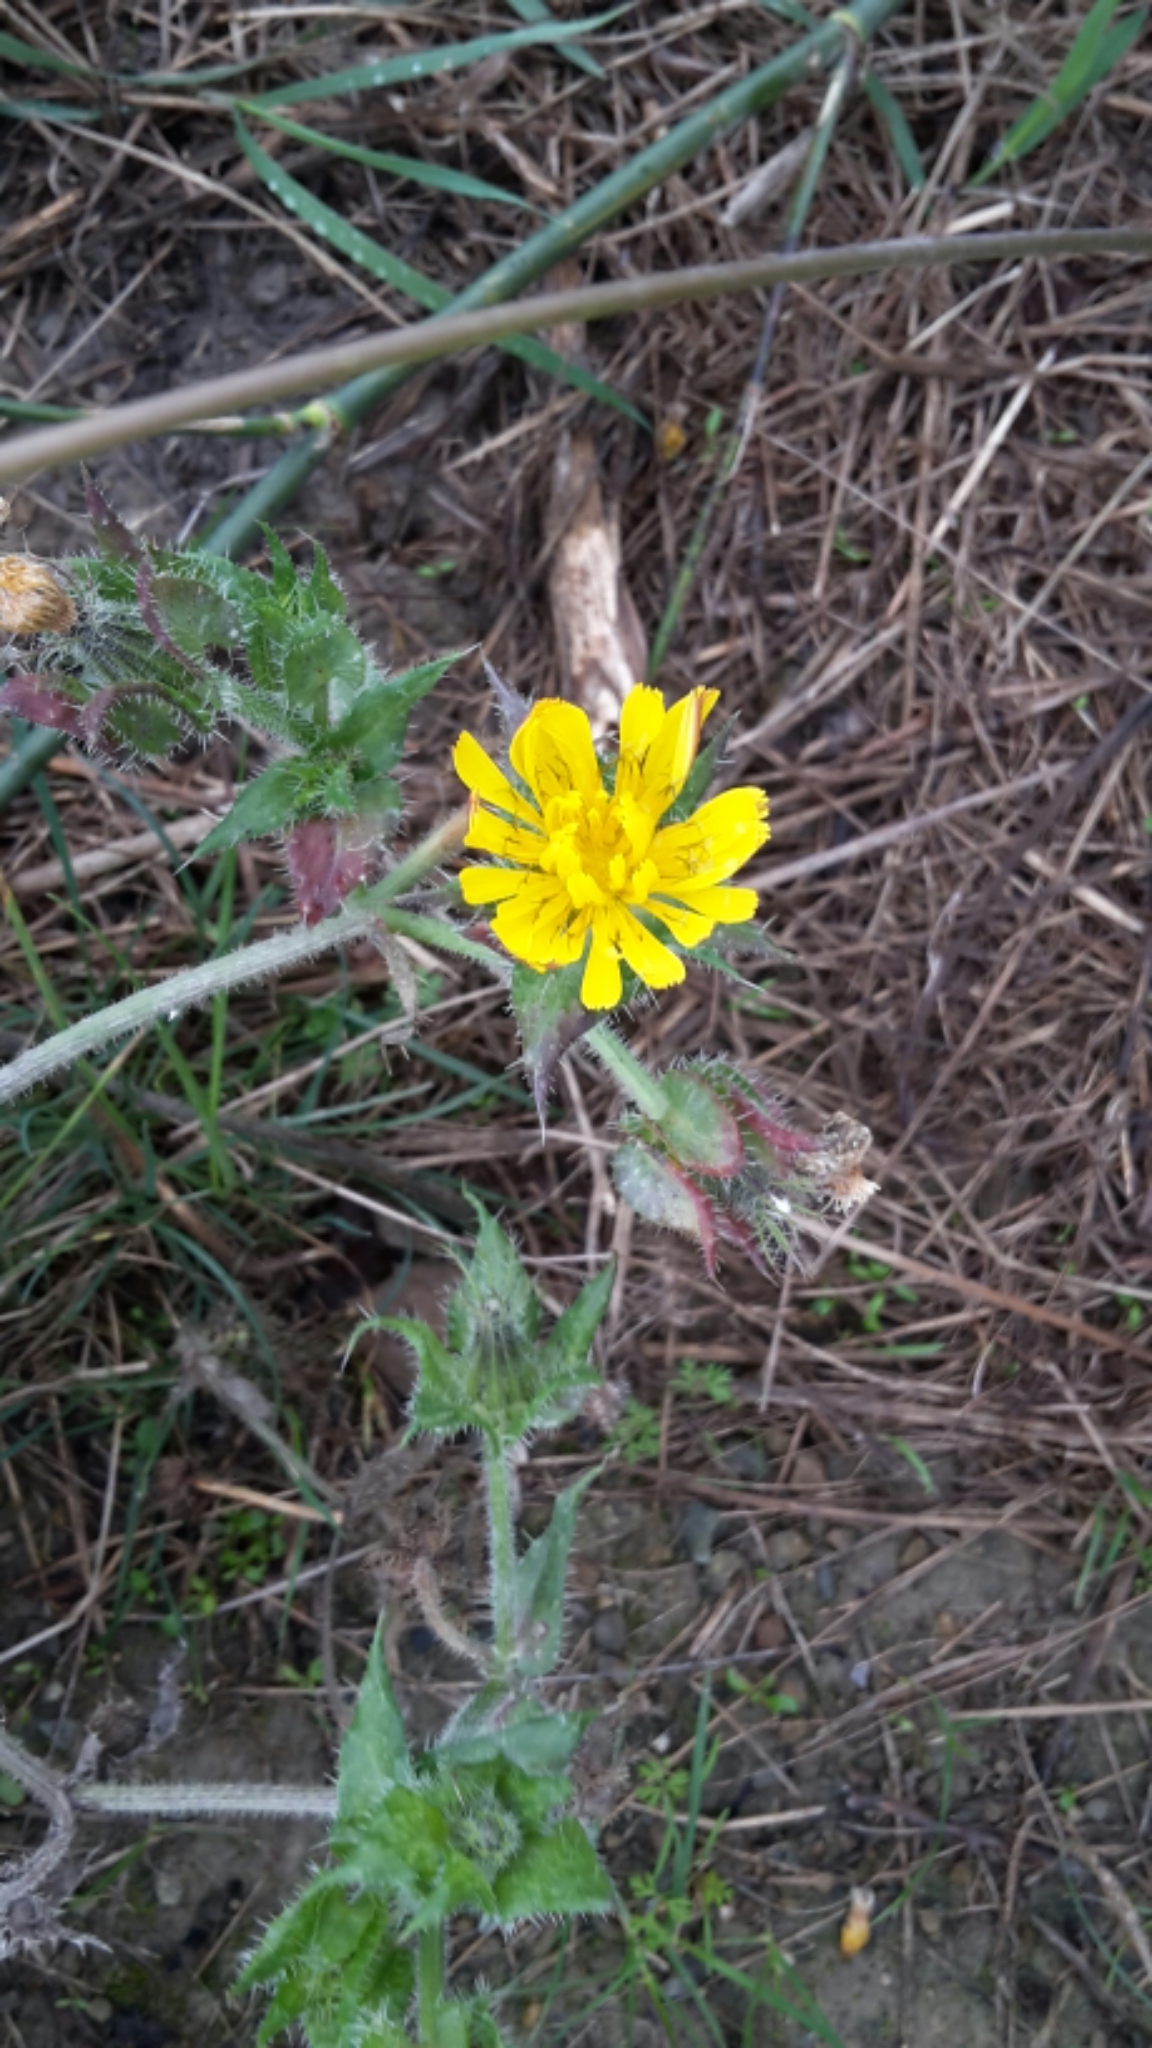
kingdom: Plantae
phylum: Tracheophyta
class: Magnoliopsida
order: Asterales
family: Asteraceae
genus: Helminthotheca
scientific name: Helminthotheca echioides
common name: Ox-tongue
